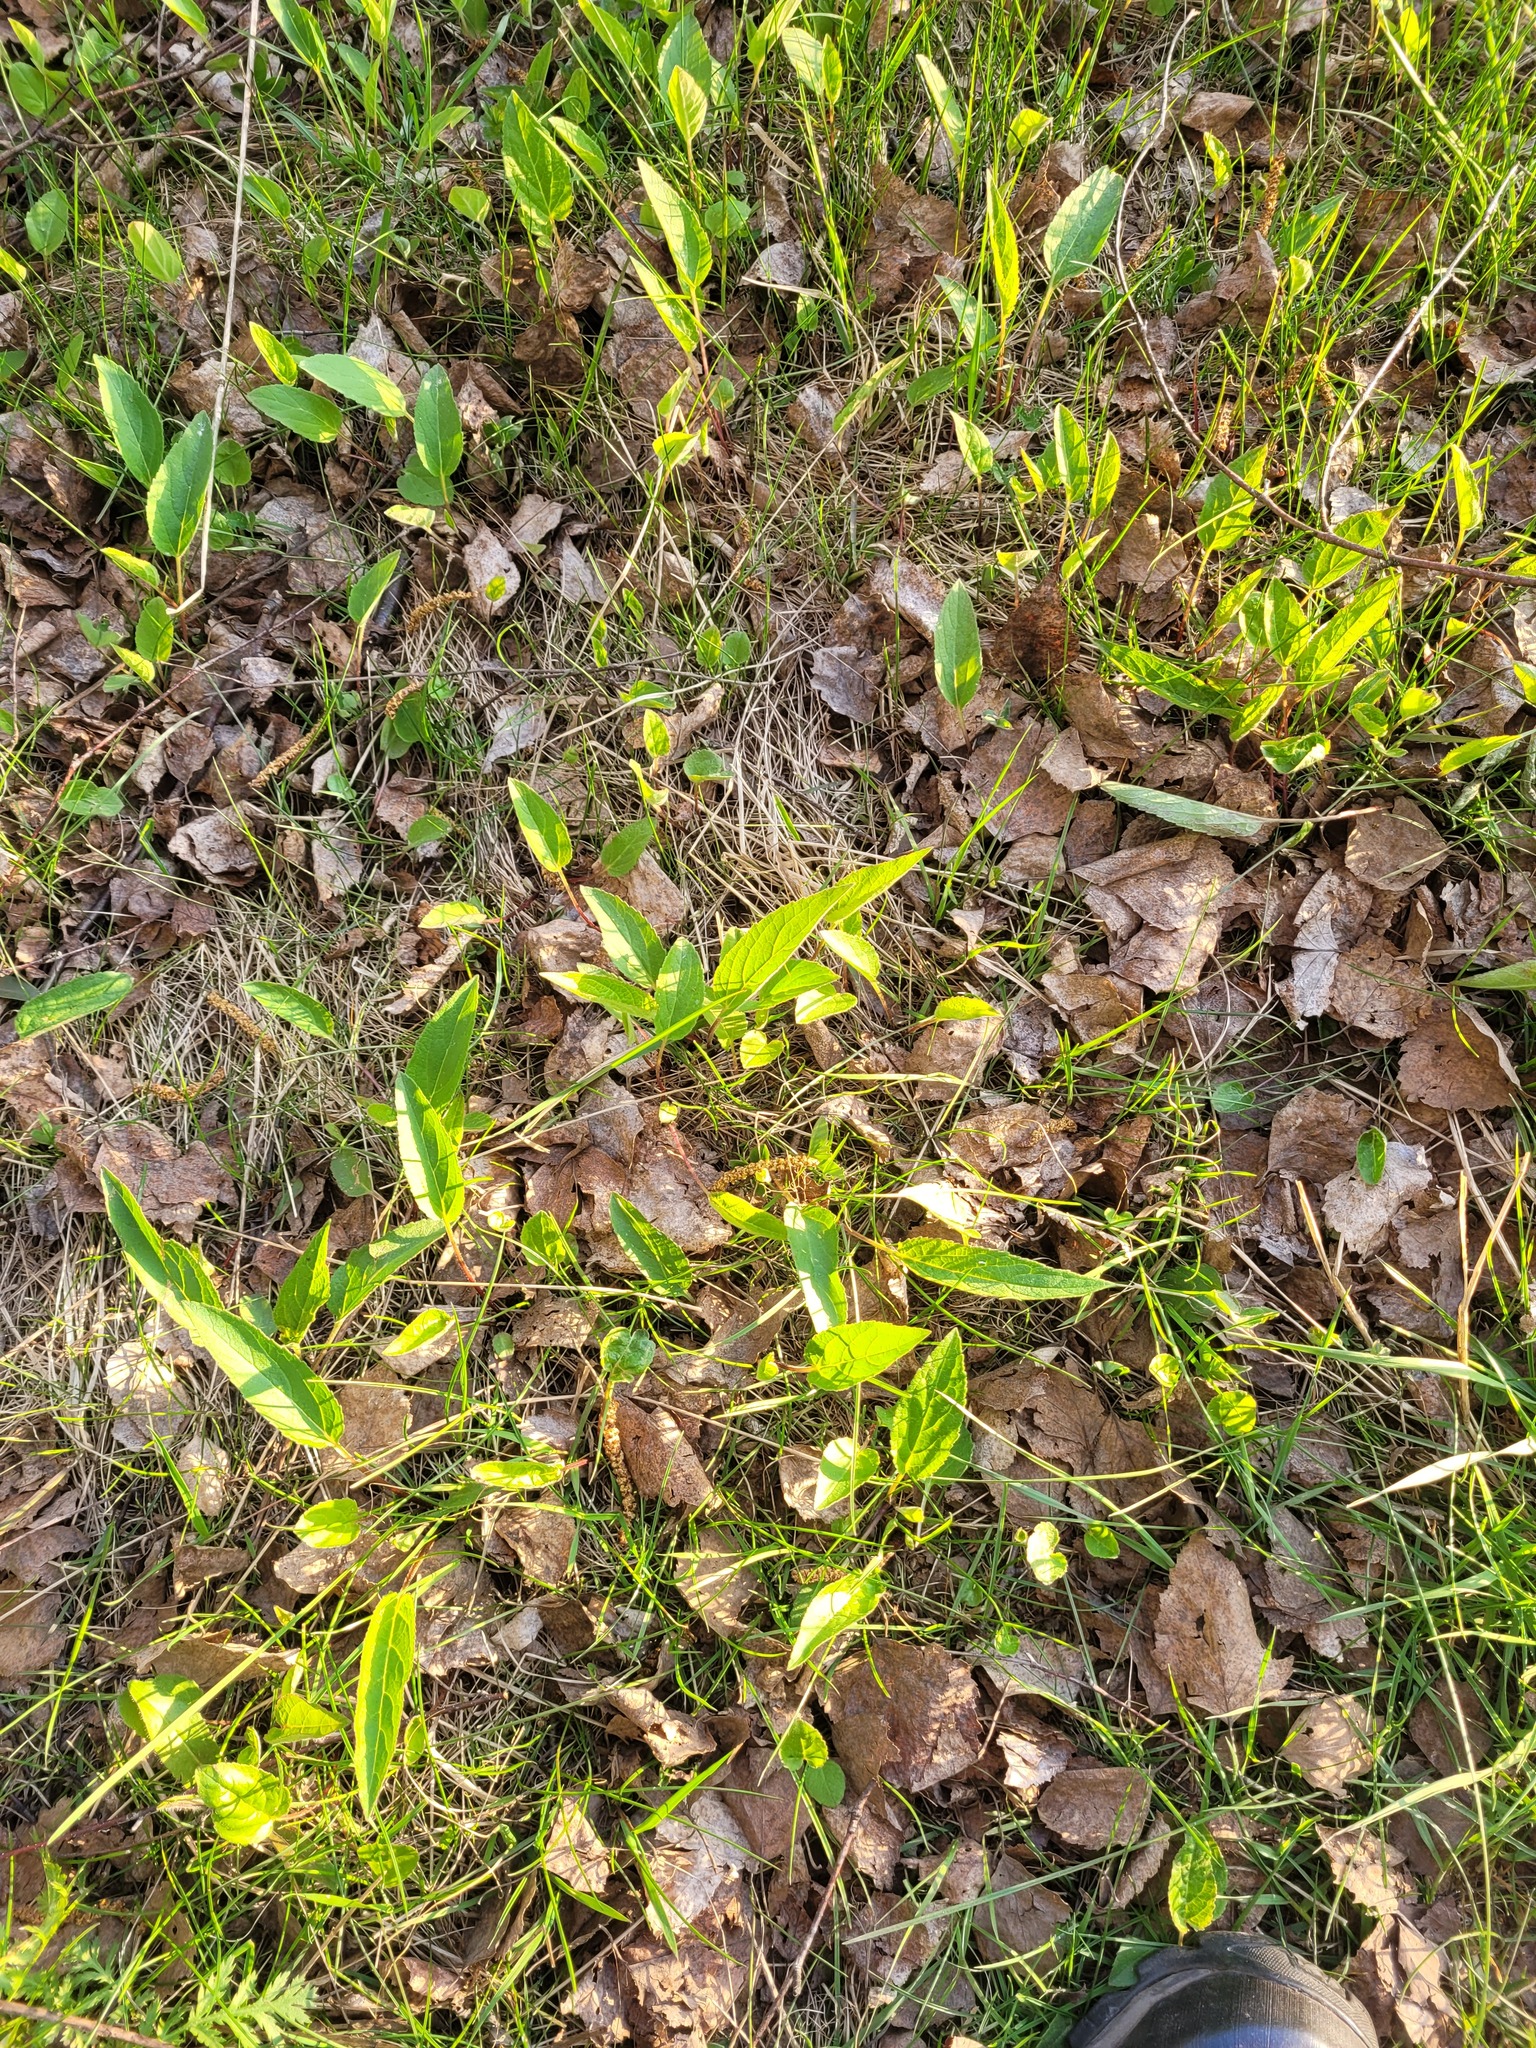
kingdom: Plantae
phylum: Tracheophyta
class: Magnoliopsida
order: Asterales
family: Campanulaceae
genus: Campanula
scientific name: Campanula rapunculoides
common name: Creeping bellflower
